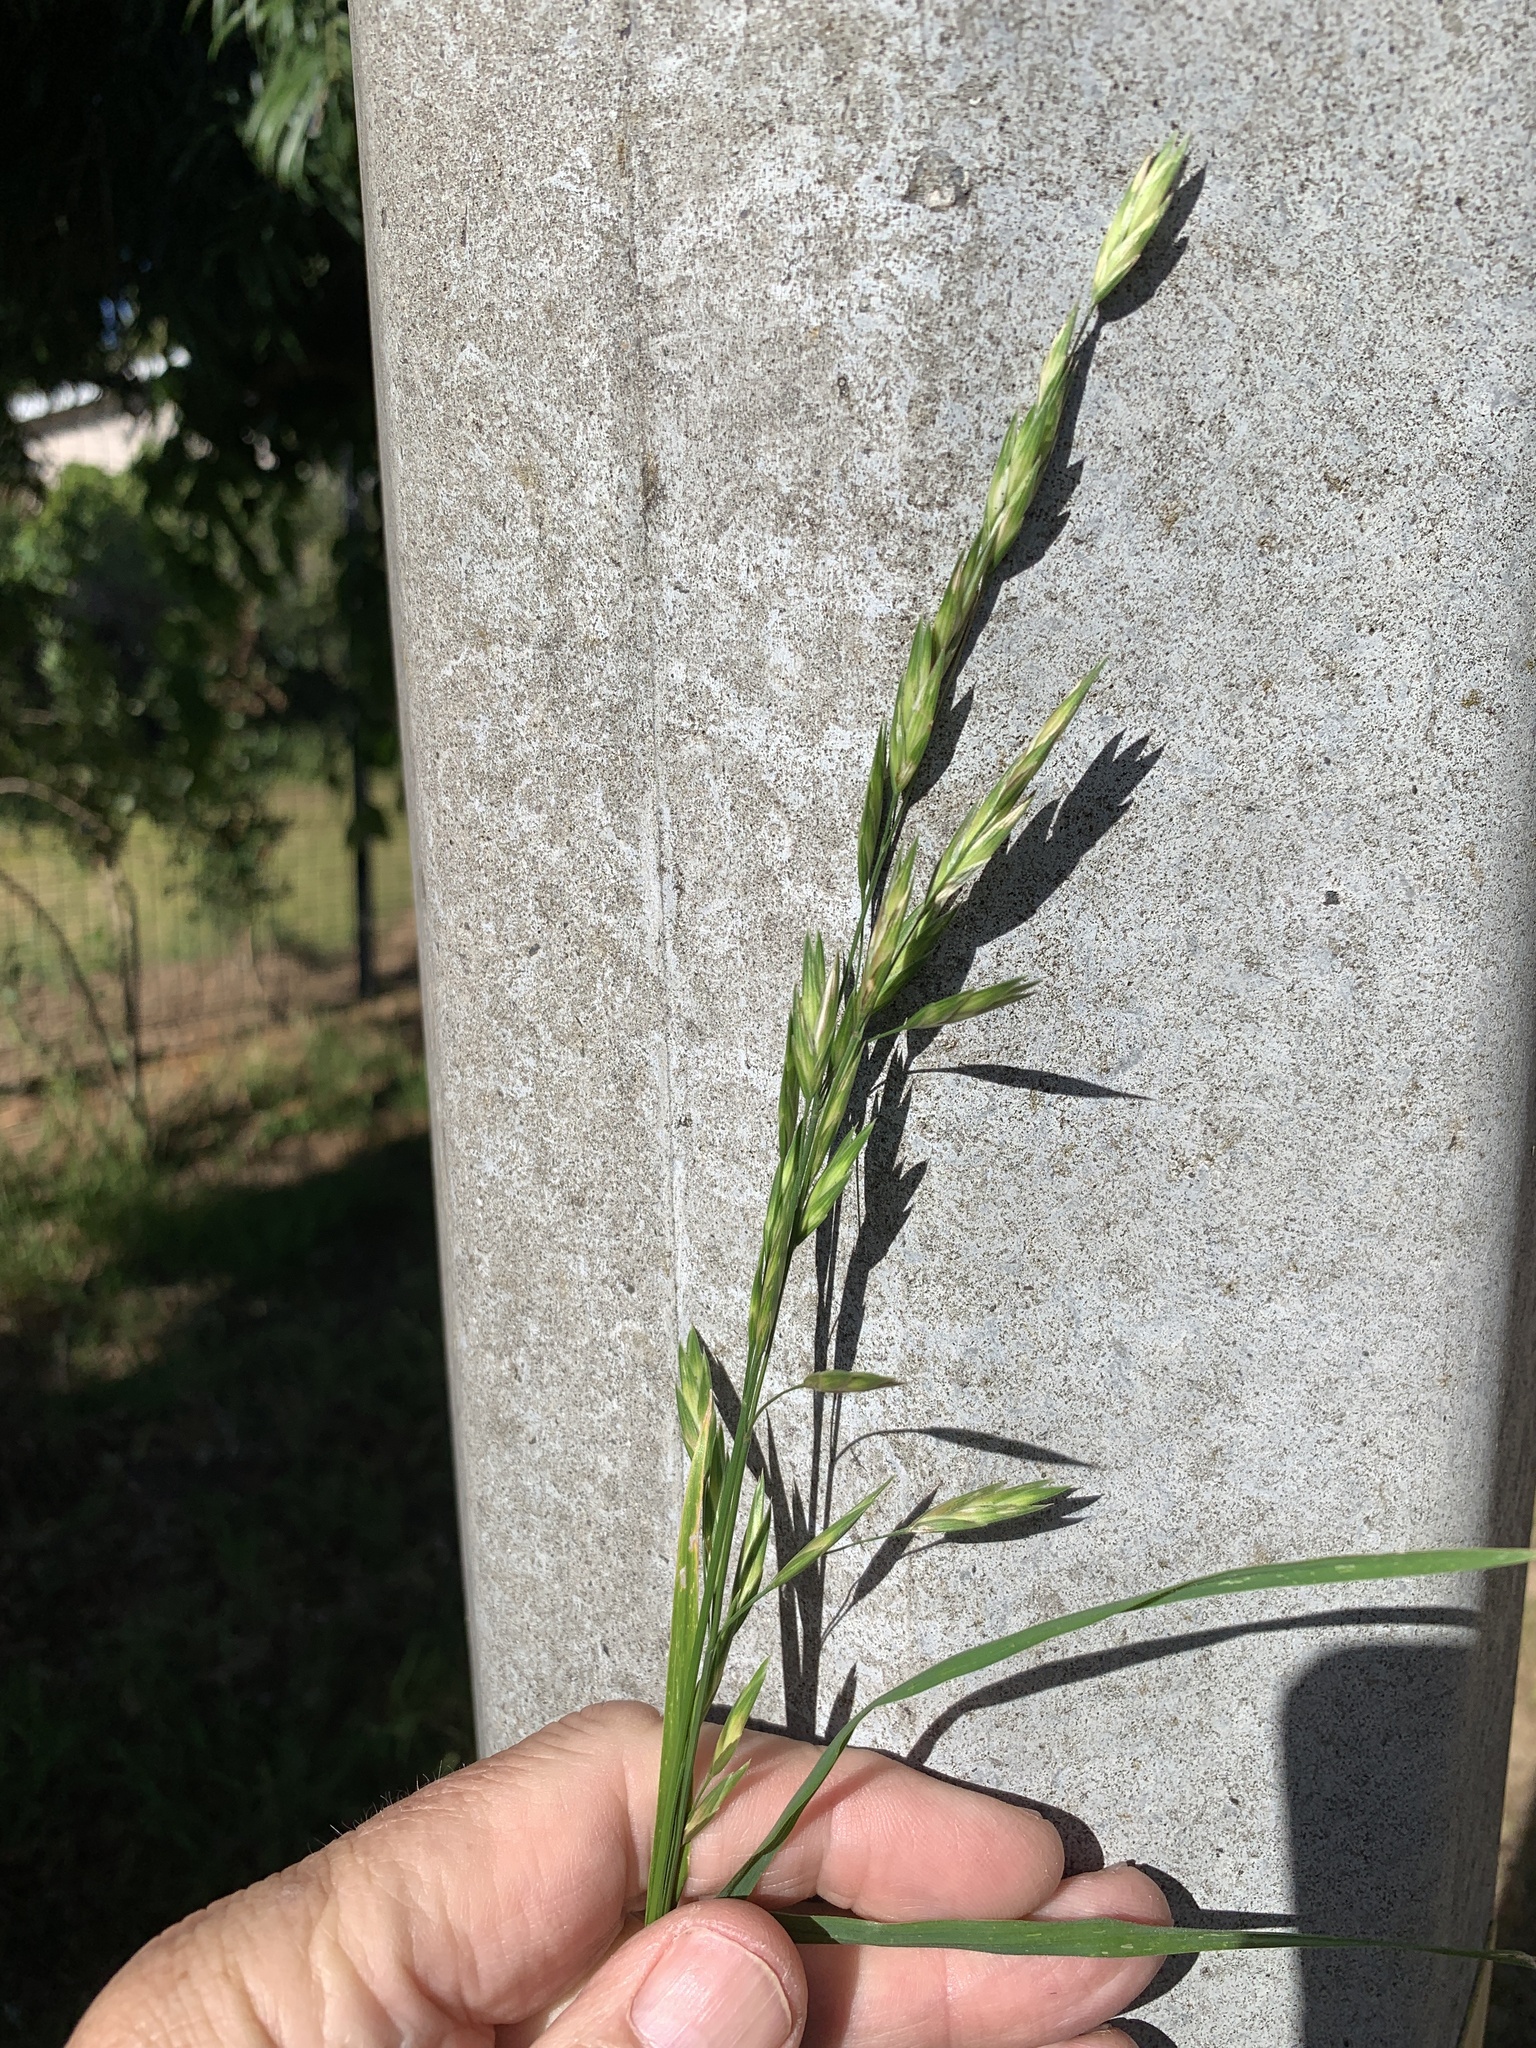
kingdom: Plantae
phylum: Tracheophyta
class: Liliopsida
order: Poales
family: Poaceae
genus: Bromus
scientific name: Bromus catharticus
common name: Rescuegrass
